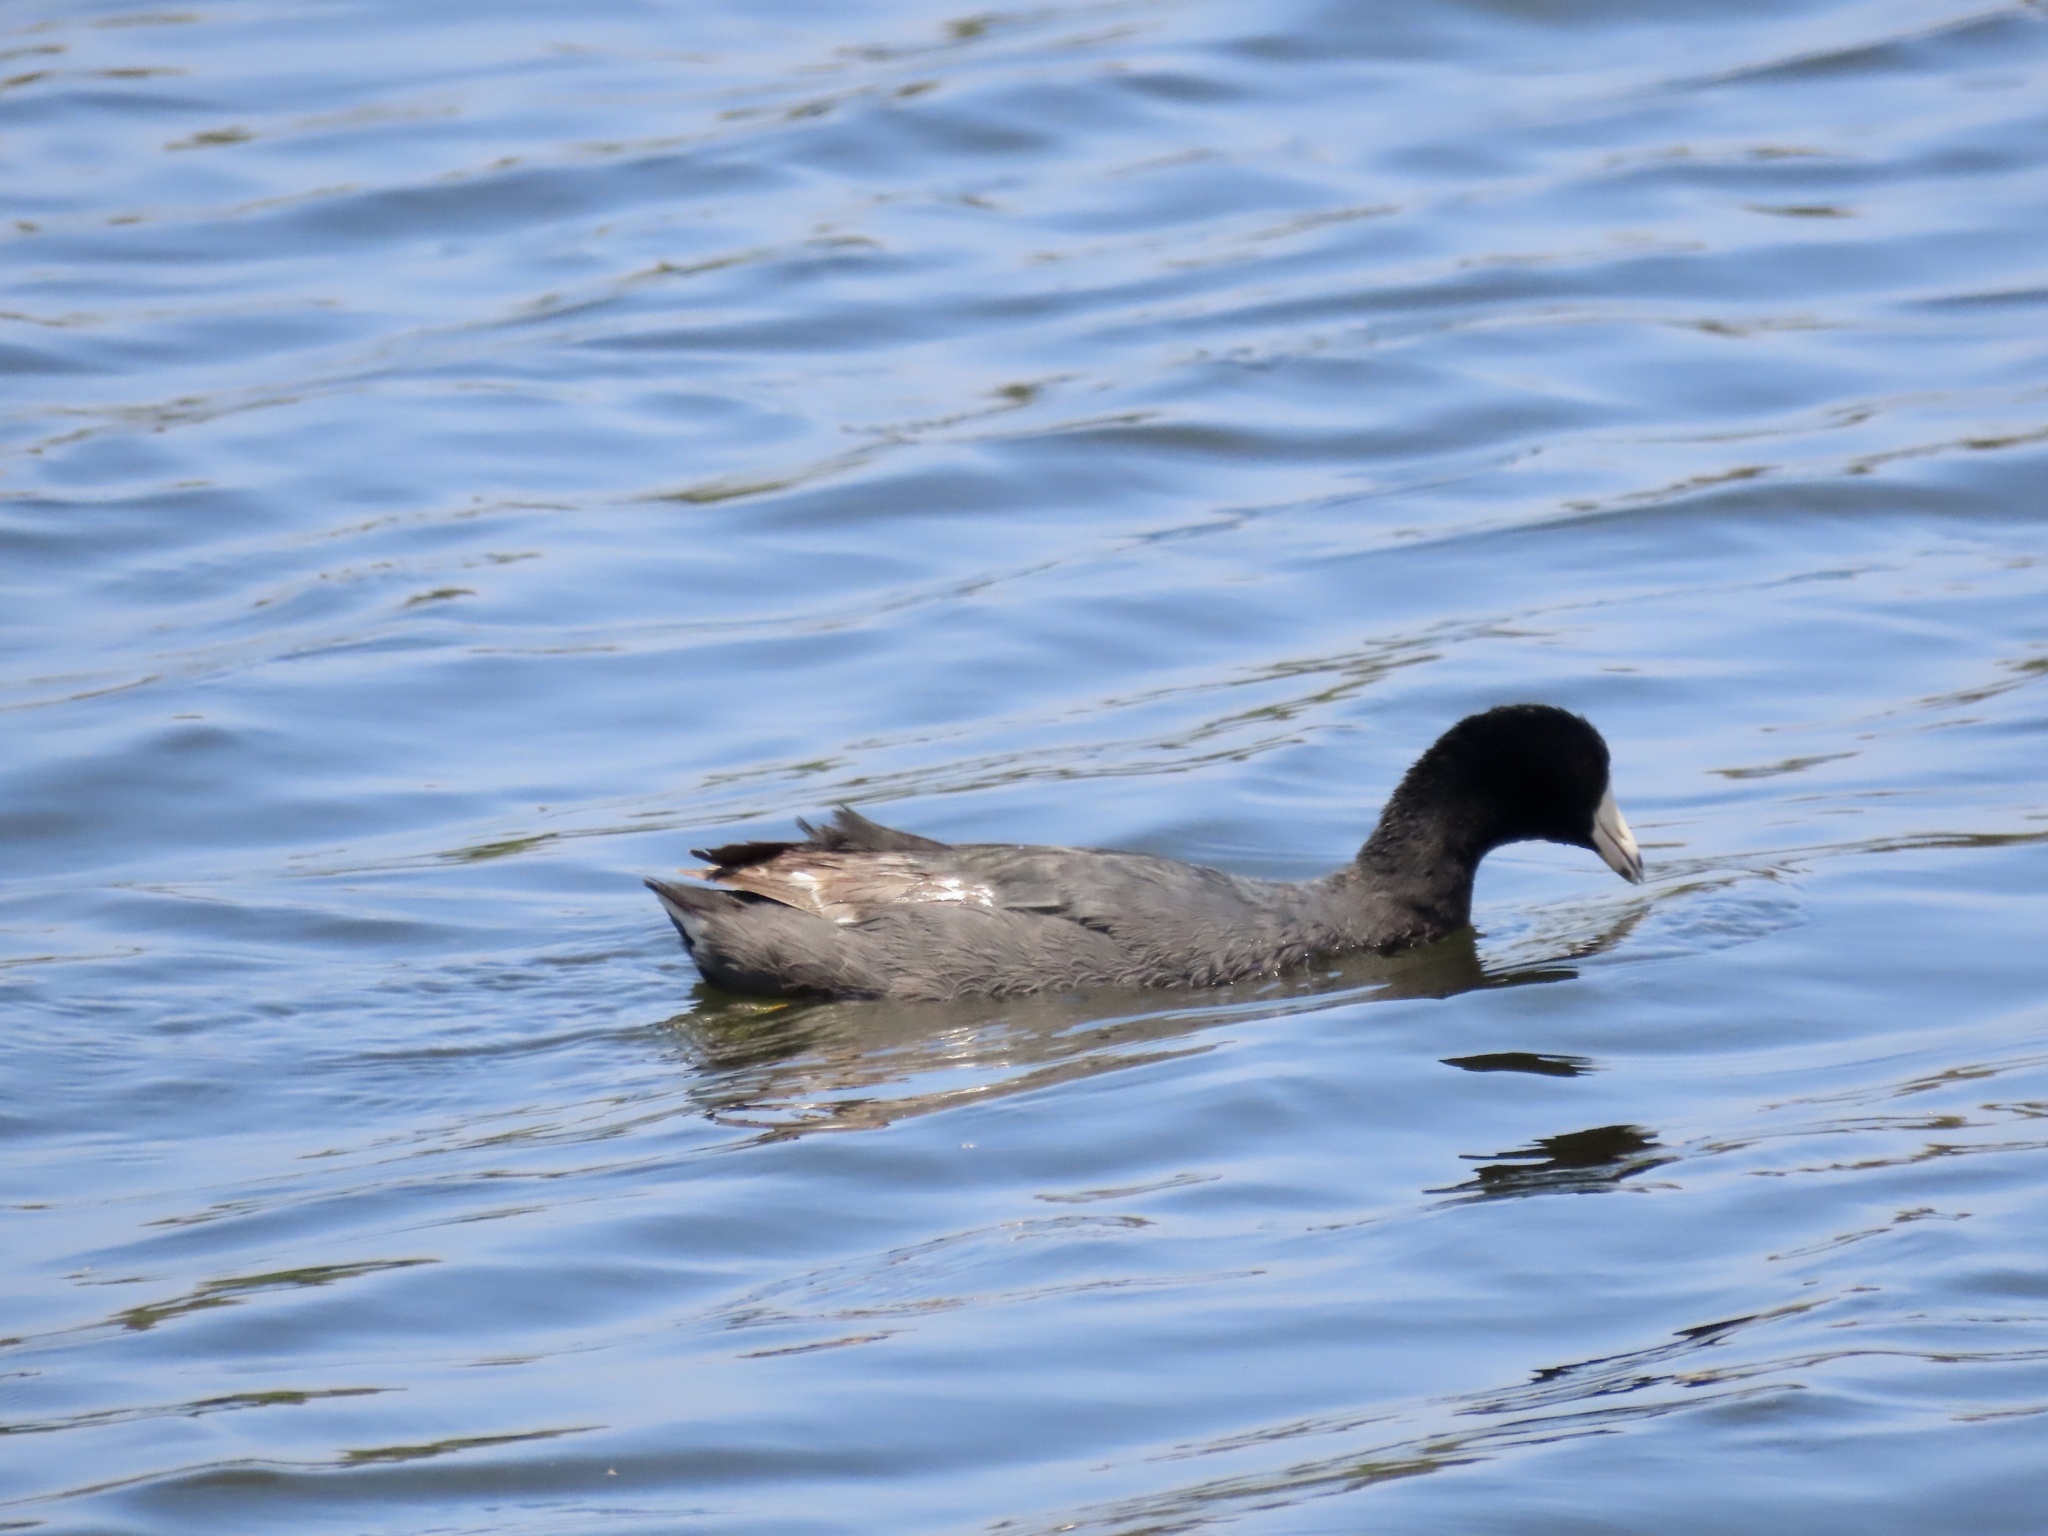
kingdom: Animalia
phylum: Chordata
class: Aves
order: Gruiformes
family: Rallidae
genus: Fulica
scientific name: Fulica americana
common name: American coot
